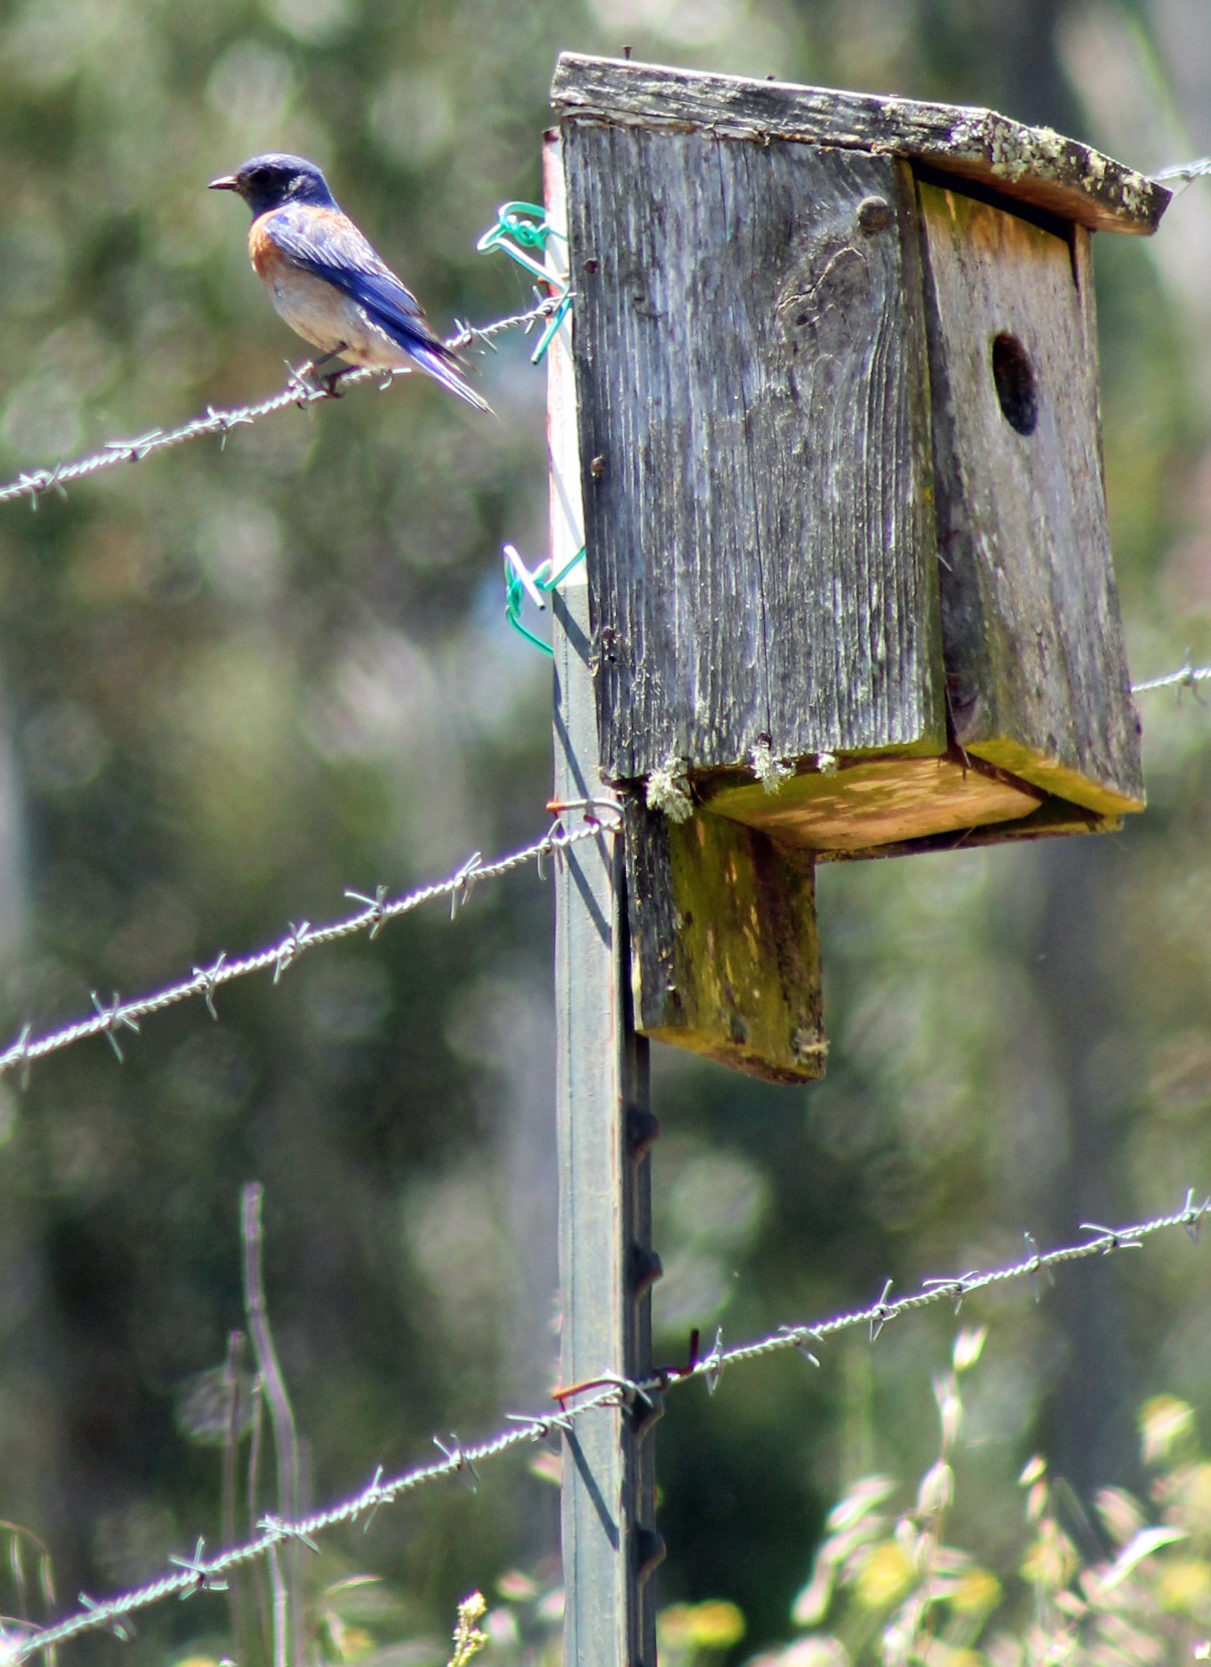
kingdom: Animalia
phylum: Chordata
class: Aves
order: Passeriformes
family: Turdidae
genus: Sialia
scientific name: Sialia mexicana
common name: Western bluebird
